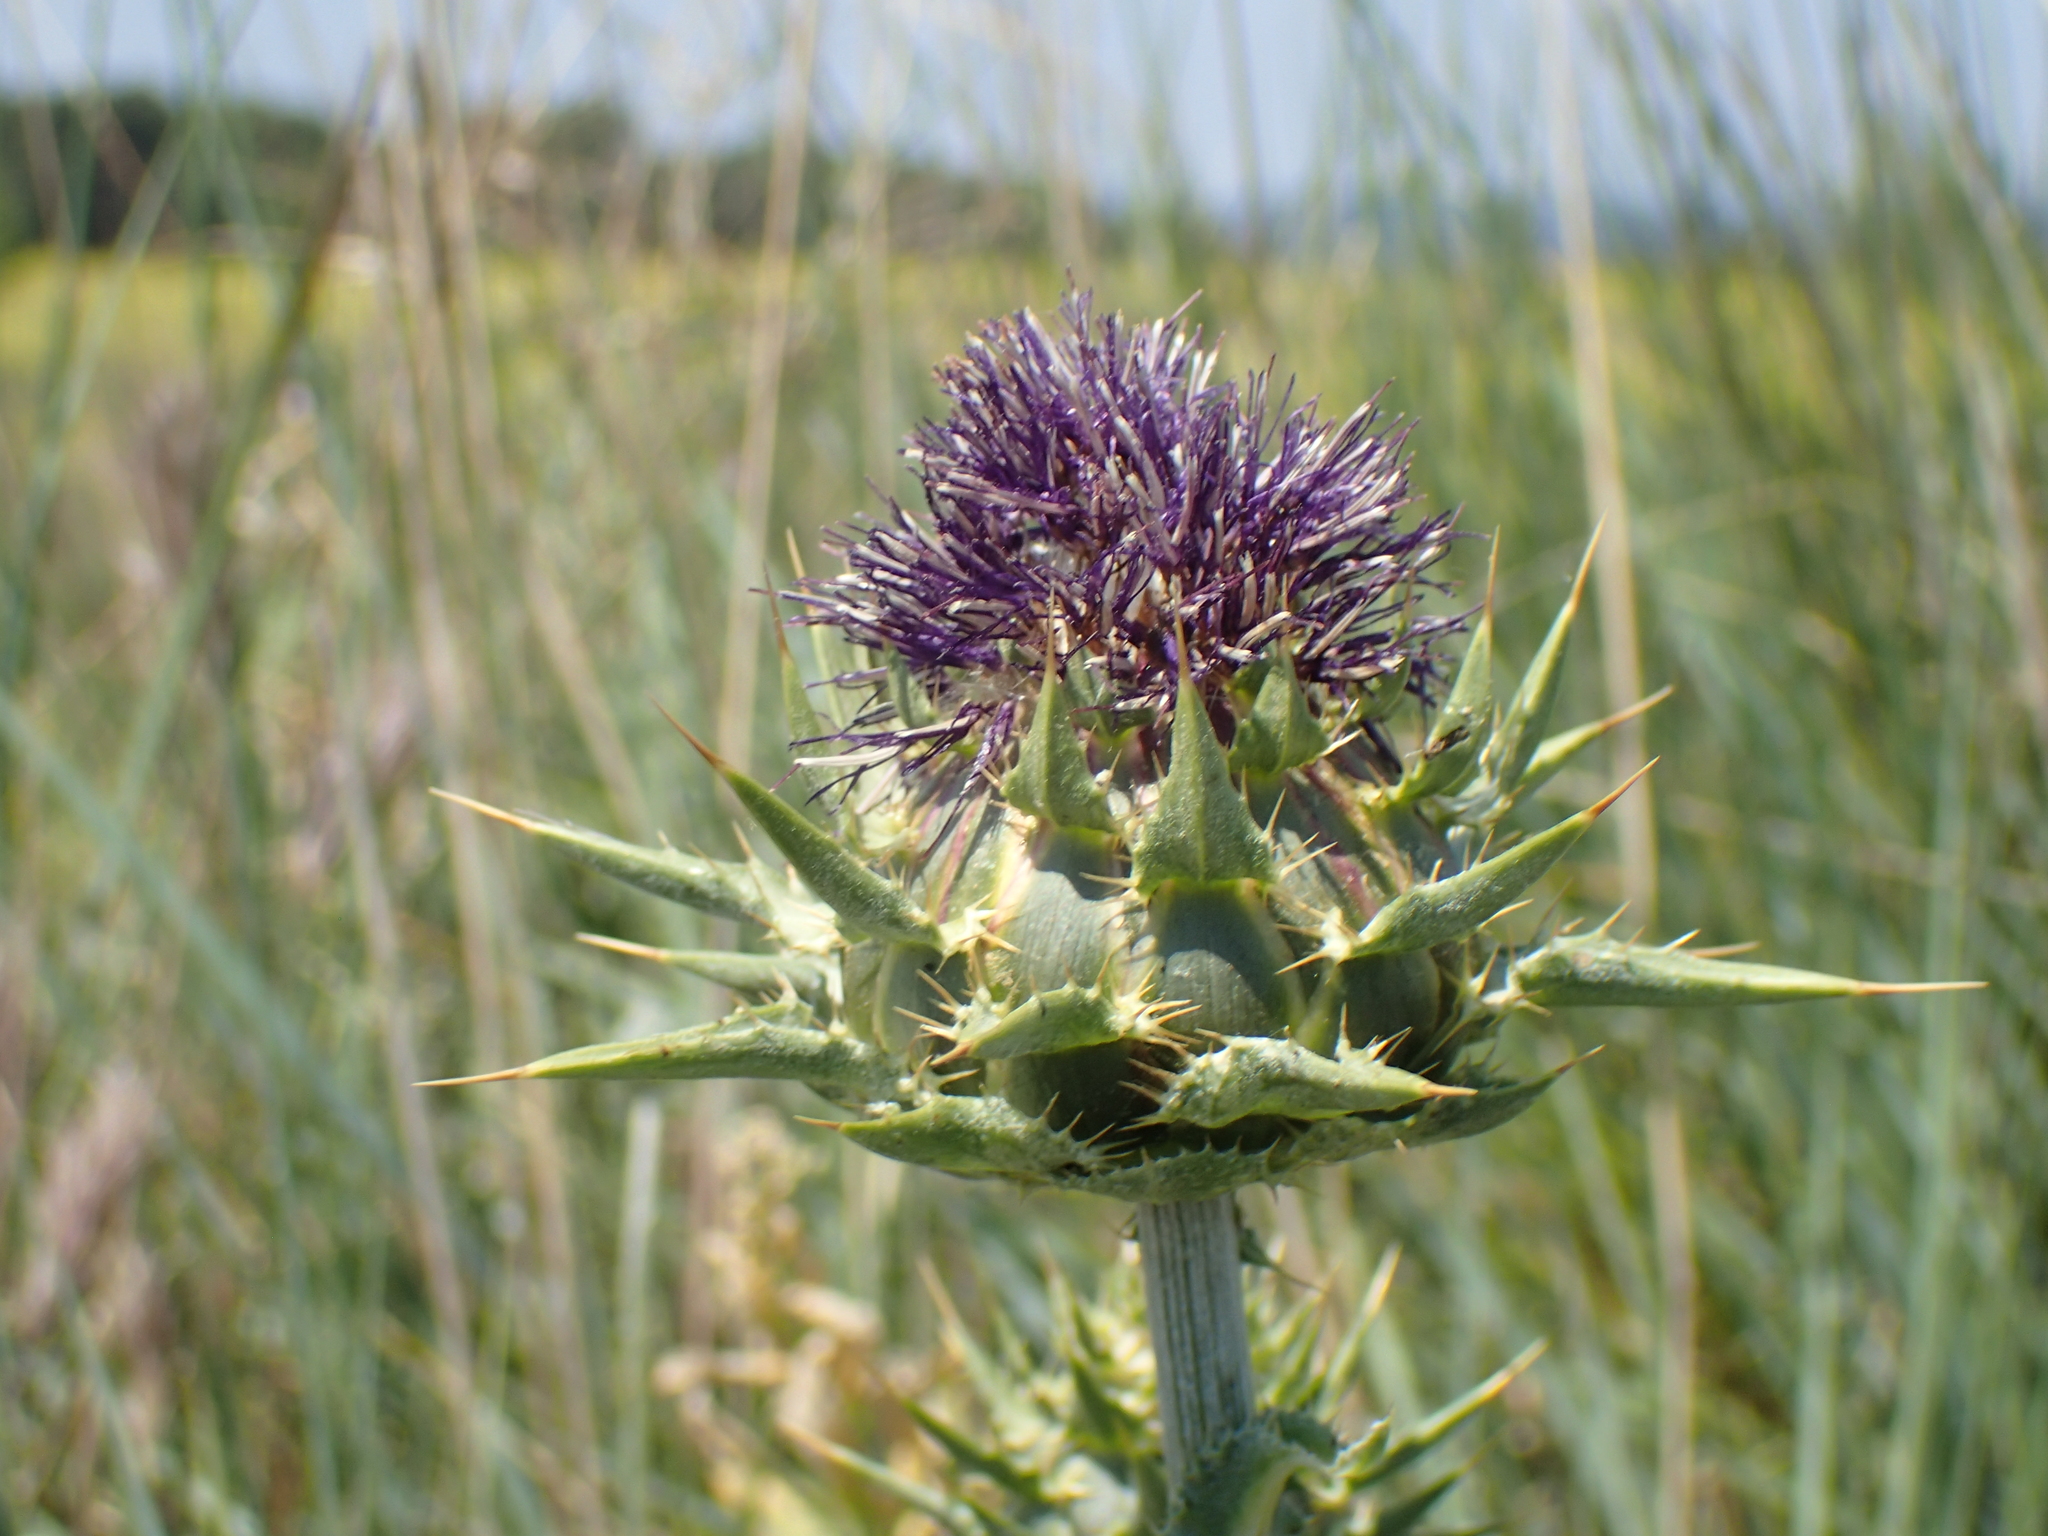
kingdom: Plantae
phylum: Tracheophyta
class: Magnoliopsida
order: Asterales
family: Asteraceae
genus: Silybum
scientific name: Silybum marianum
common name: Milk thistle
